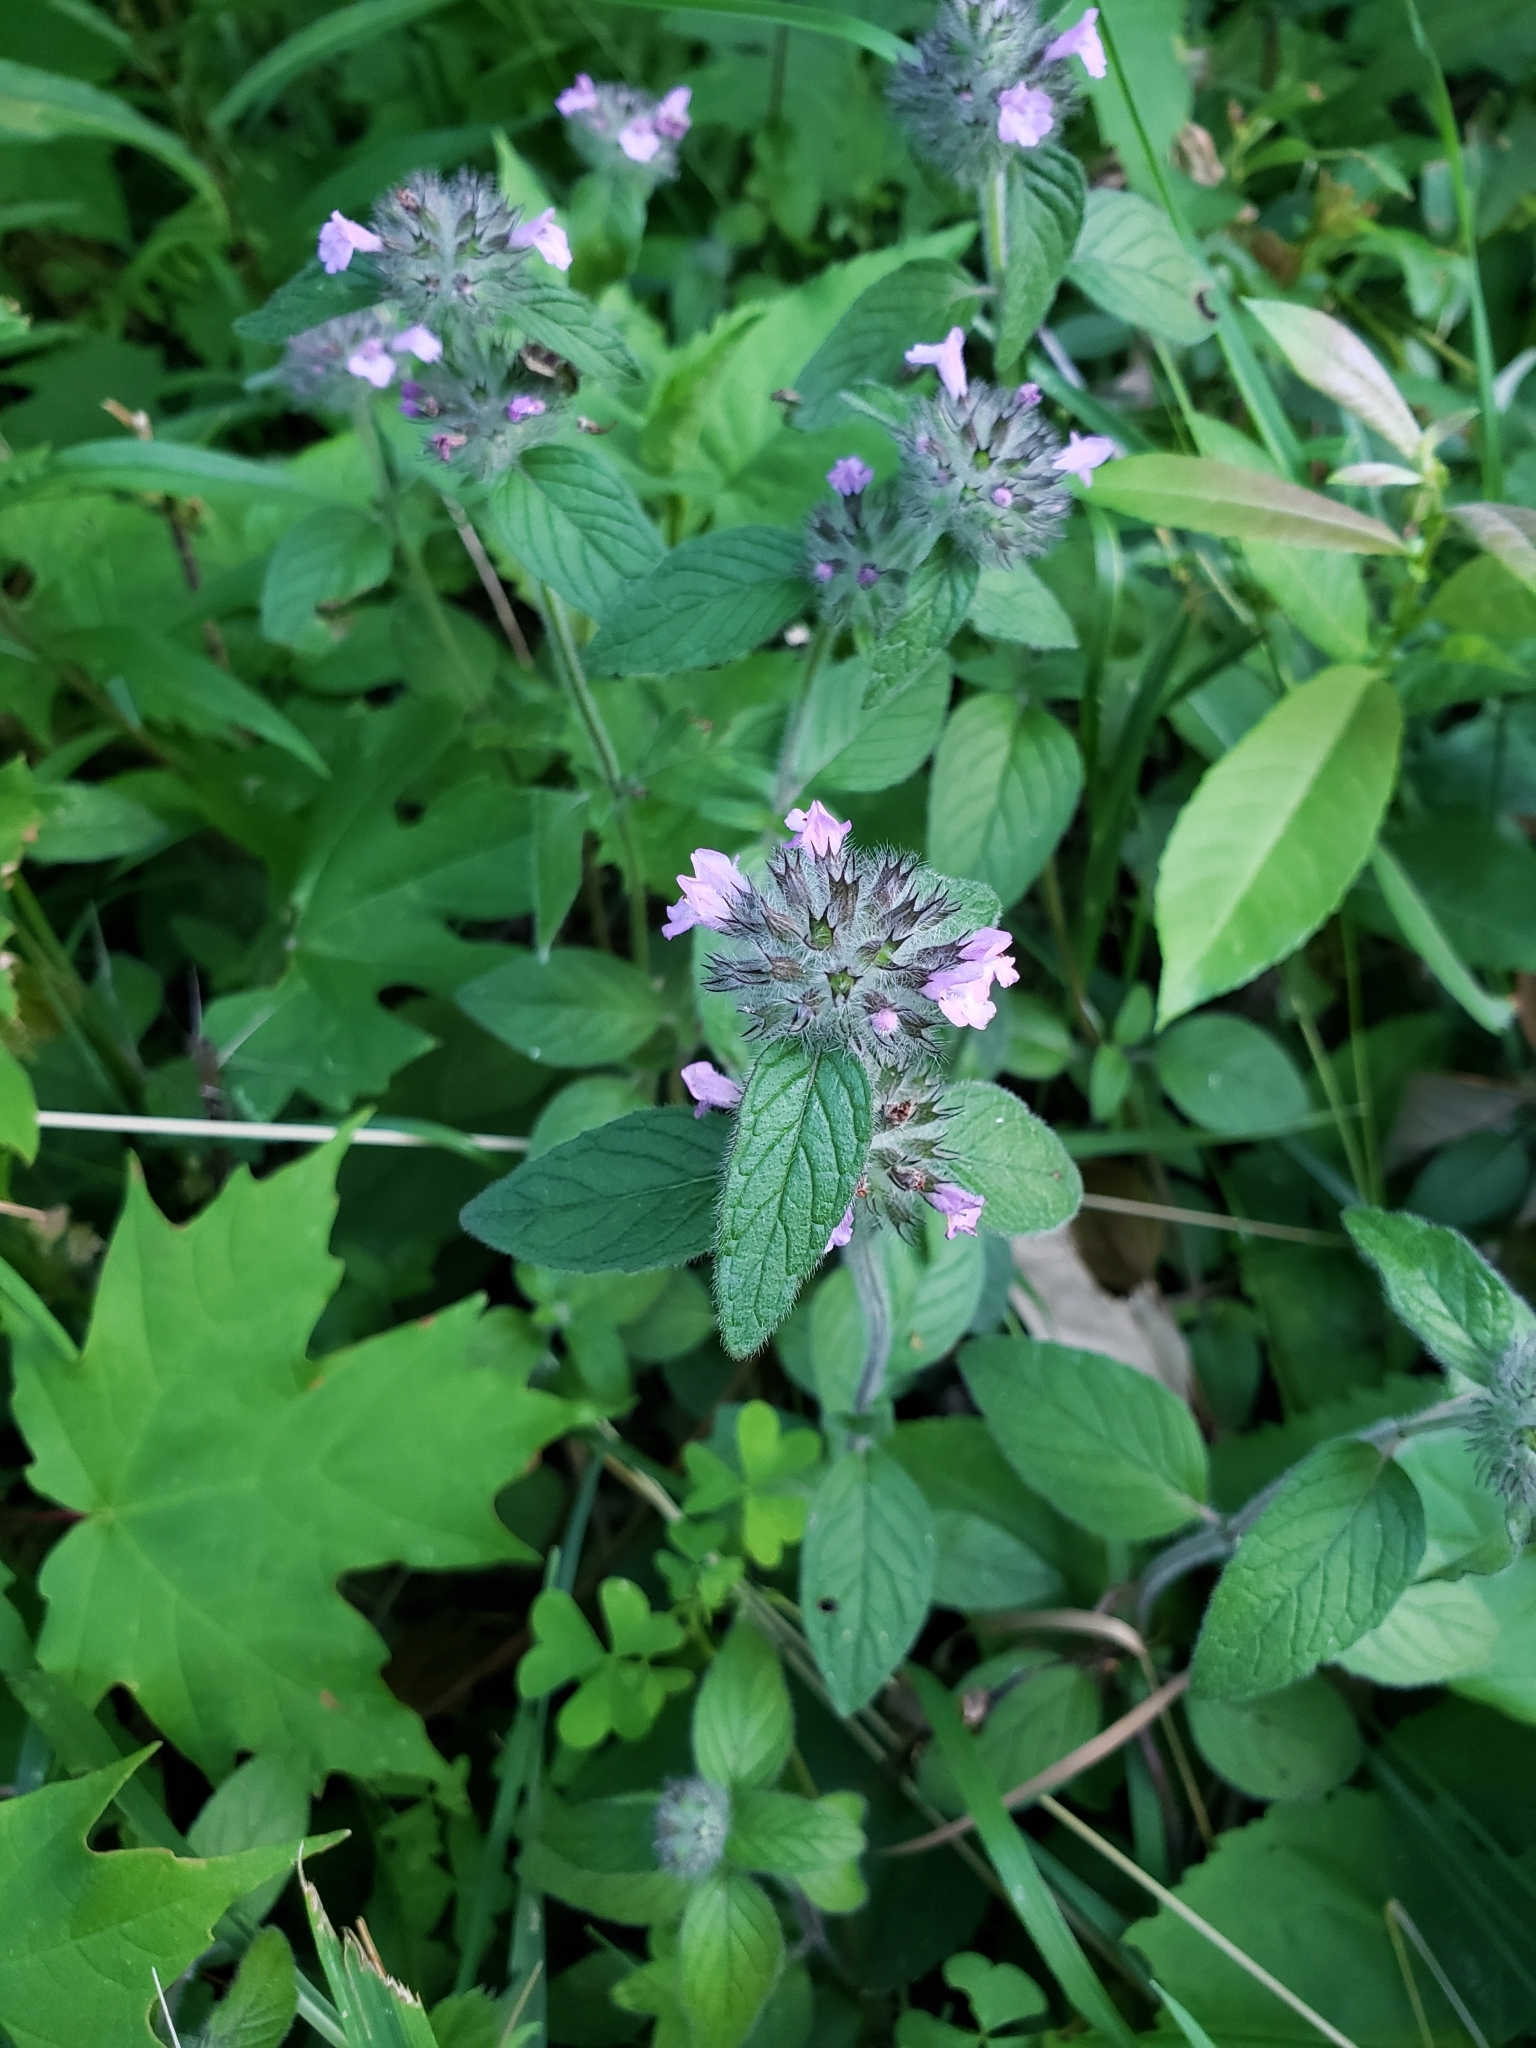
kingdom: Plantae
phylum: Tracheophyta
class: Magnoliopsida
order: Lamiales
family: Lamiaceae
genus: Clinopodium
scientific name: Clinopodium vulgare
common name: Wild basil
